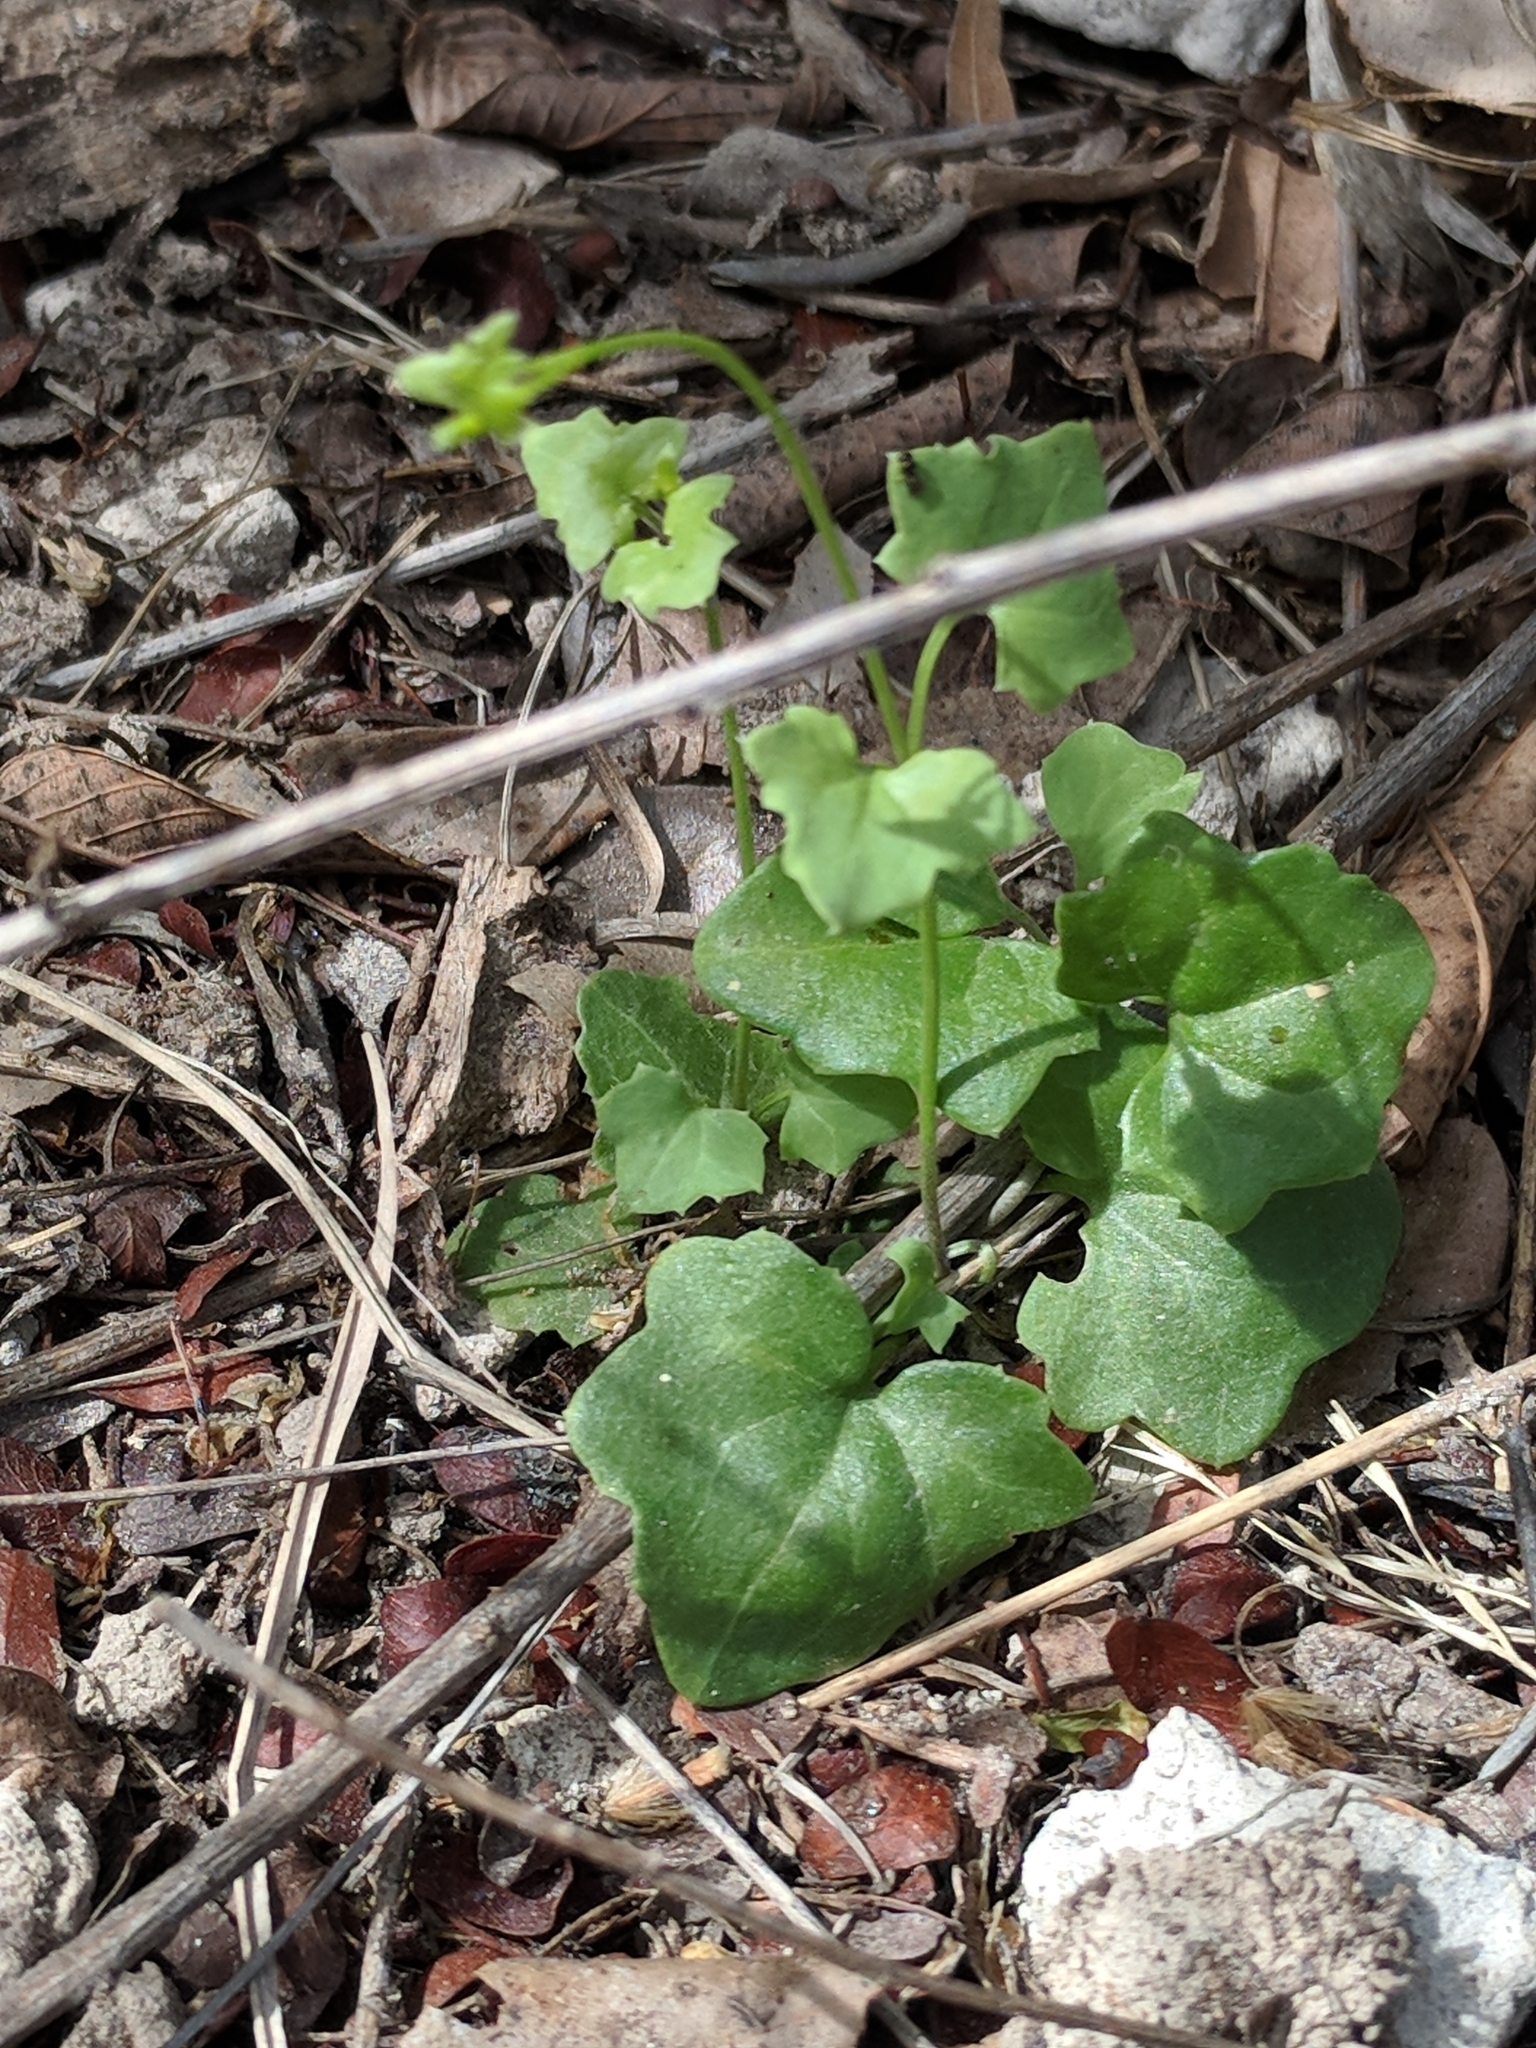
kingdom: Plantae
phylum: Tracheophyta
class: Magnoliopsida
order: Lamiales
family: Plantaginaceae
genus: Maurandella
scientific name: Maurandella antirrhiniflora
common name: Violet twining-snapdragon
